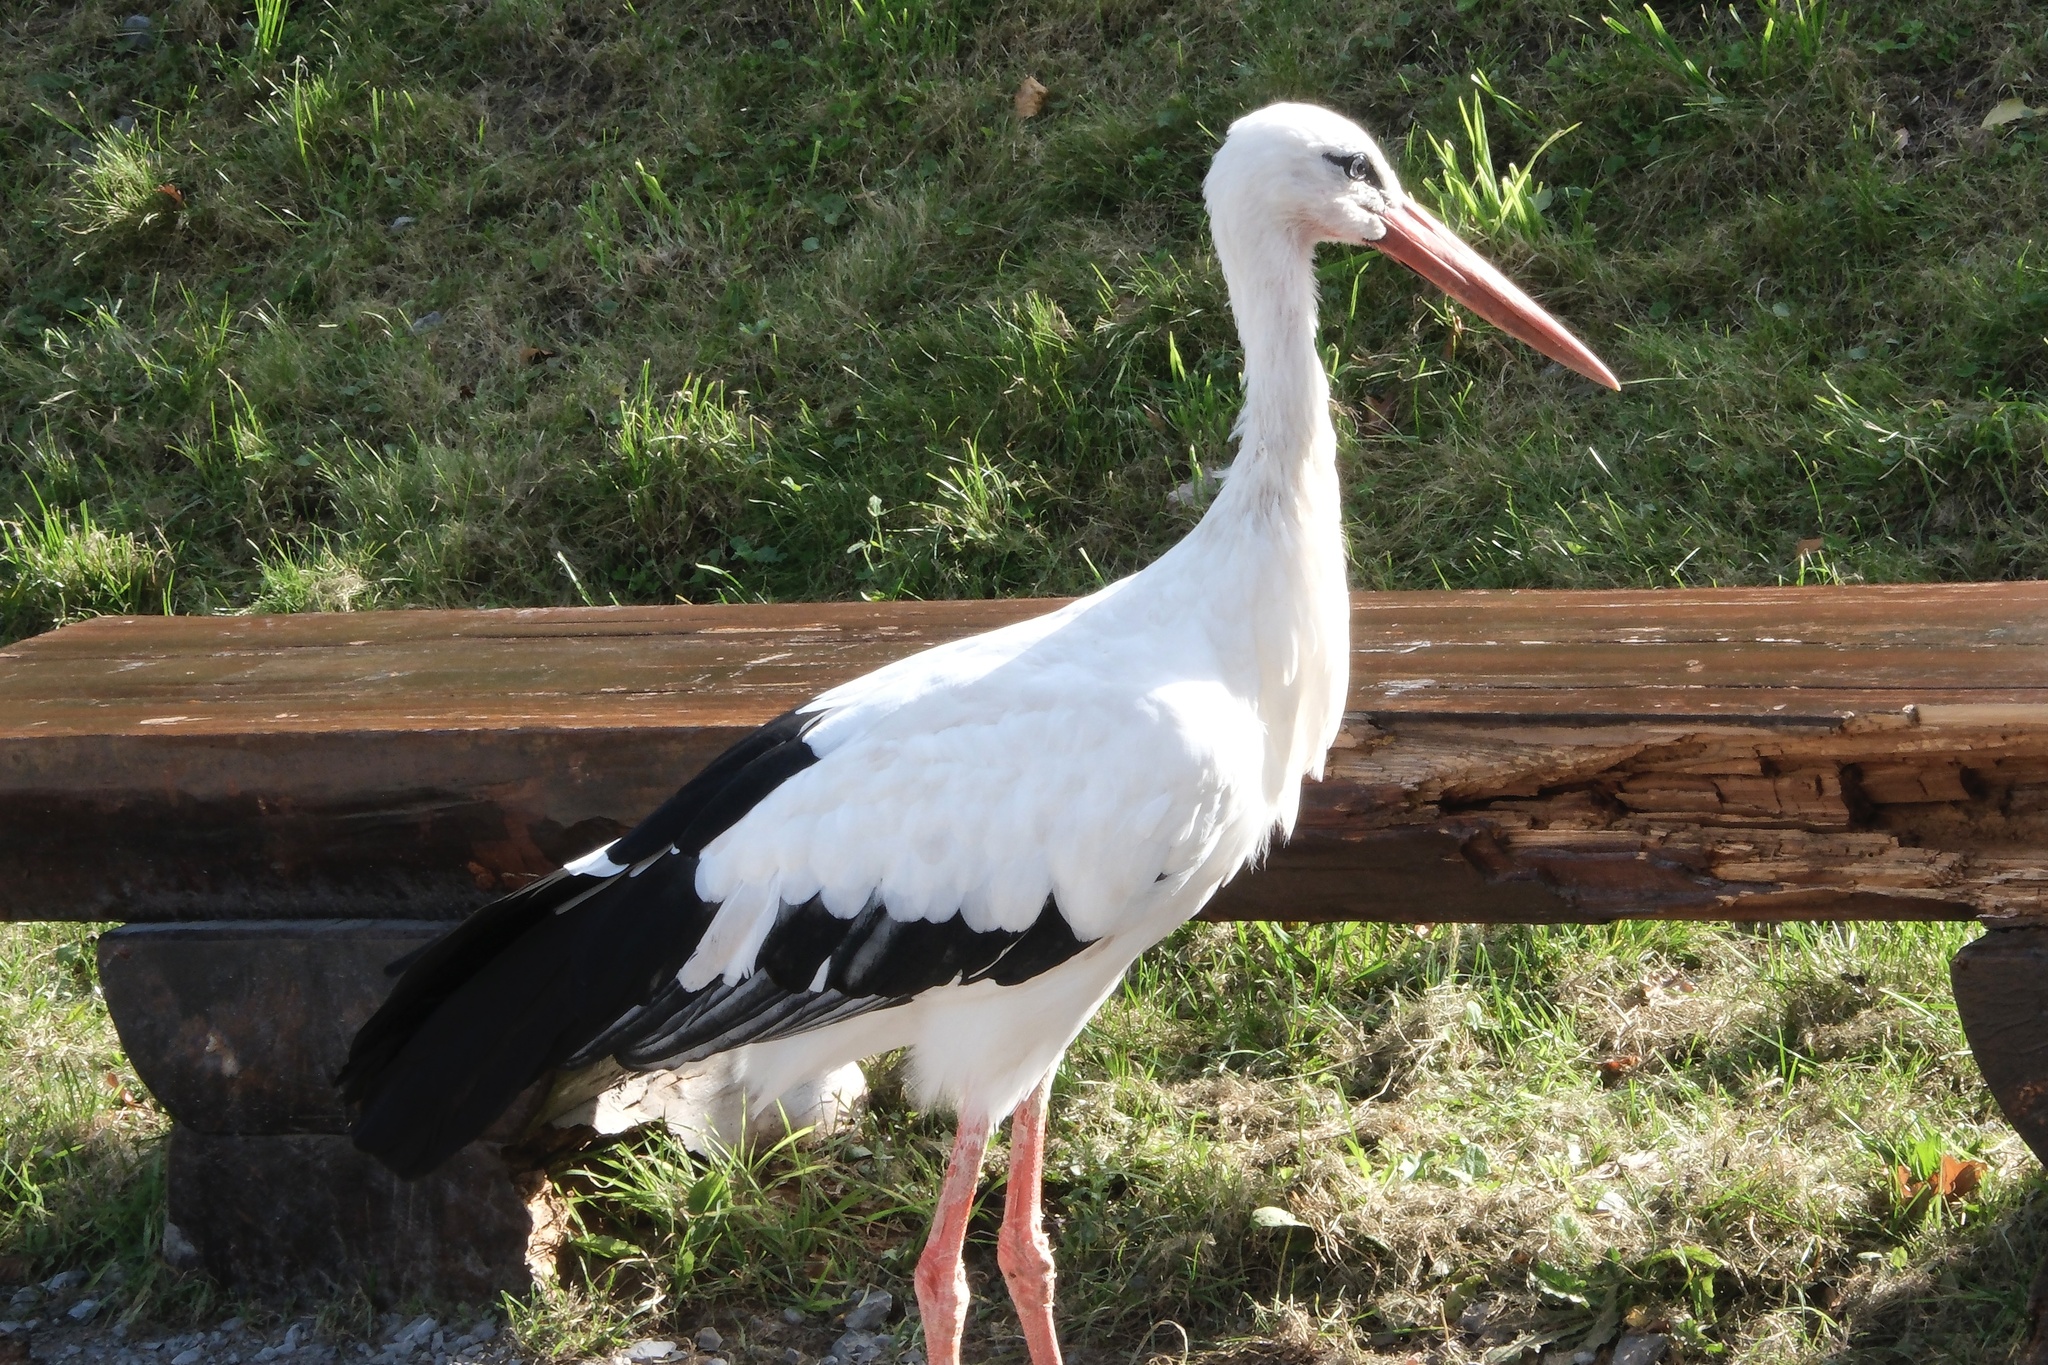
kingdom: Animalia
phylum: Chordata
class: Aves
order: Ciconiiformes
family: Ciconiidae
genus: Ciconia
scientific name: Ciconia ciconia
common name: White stork
